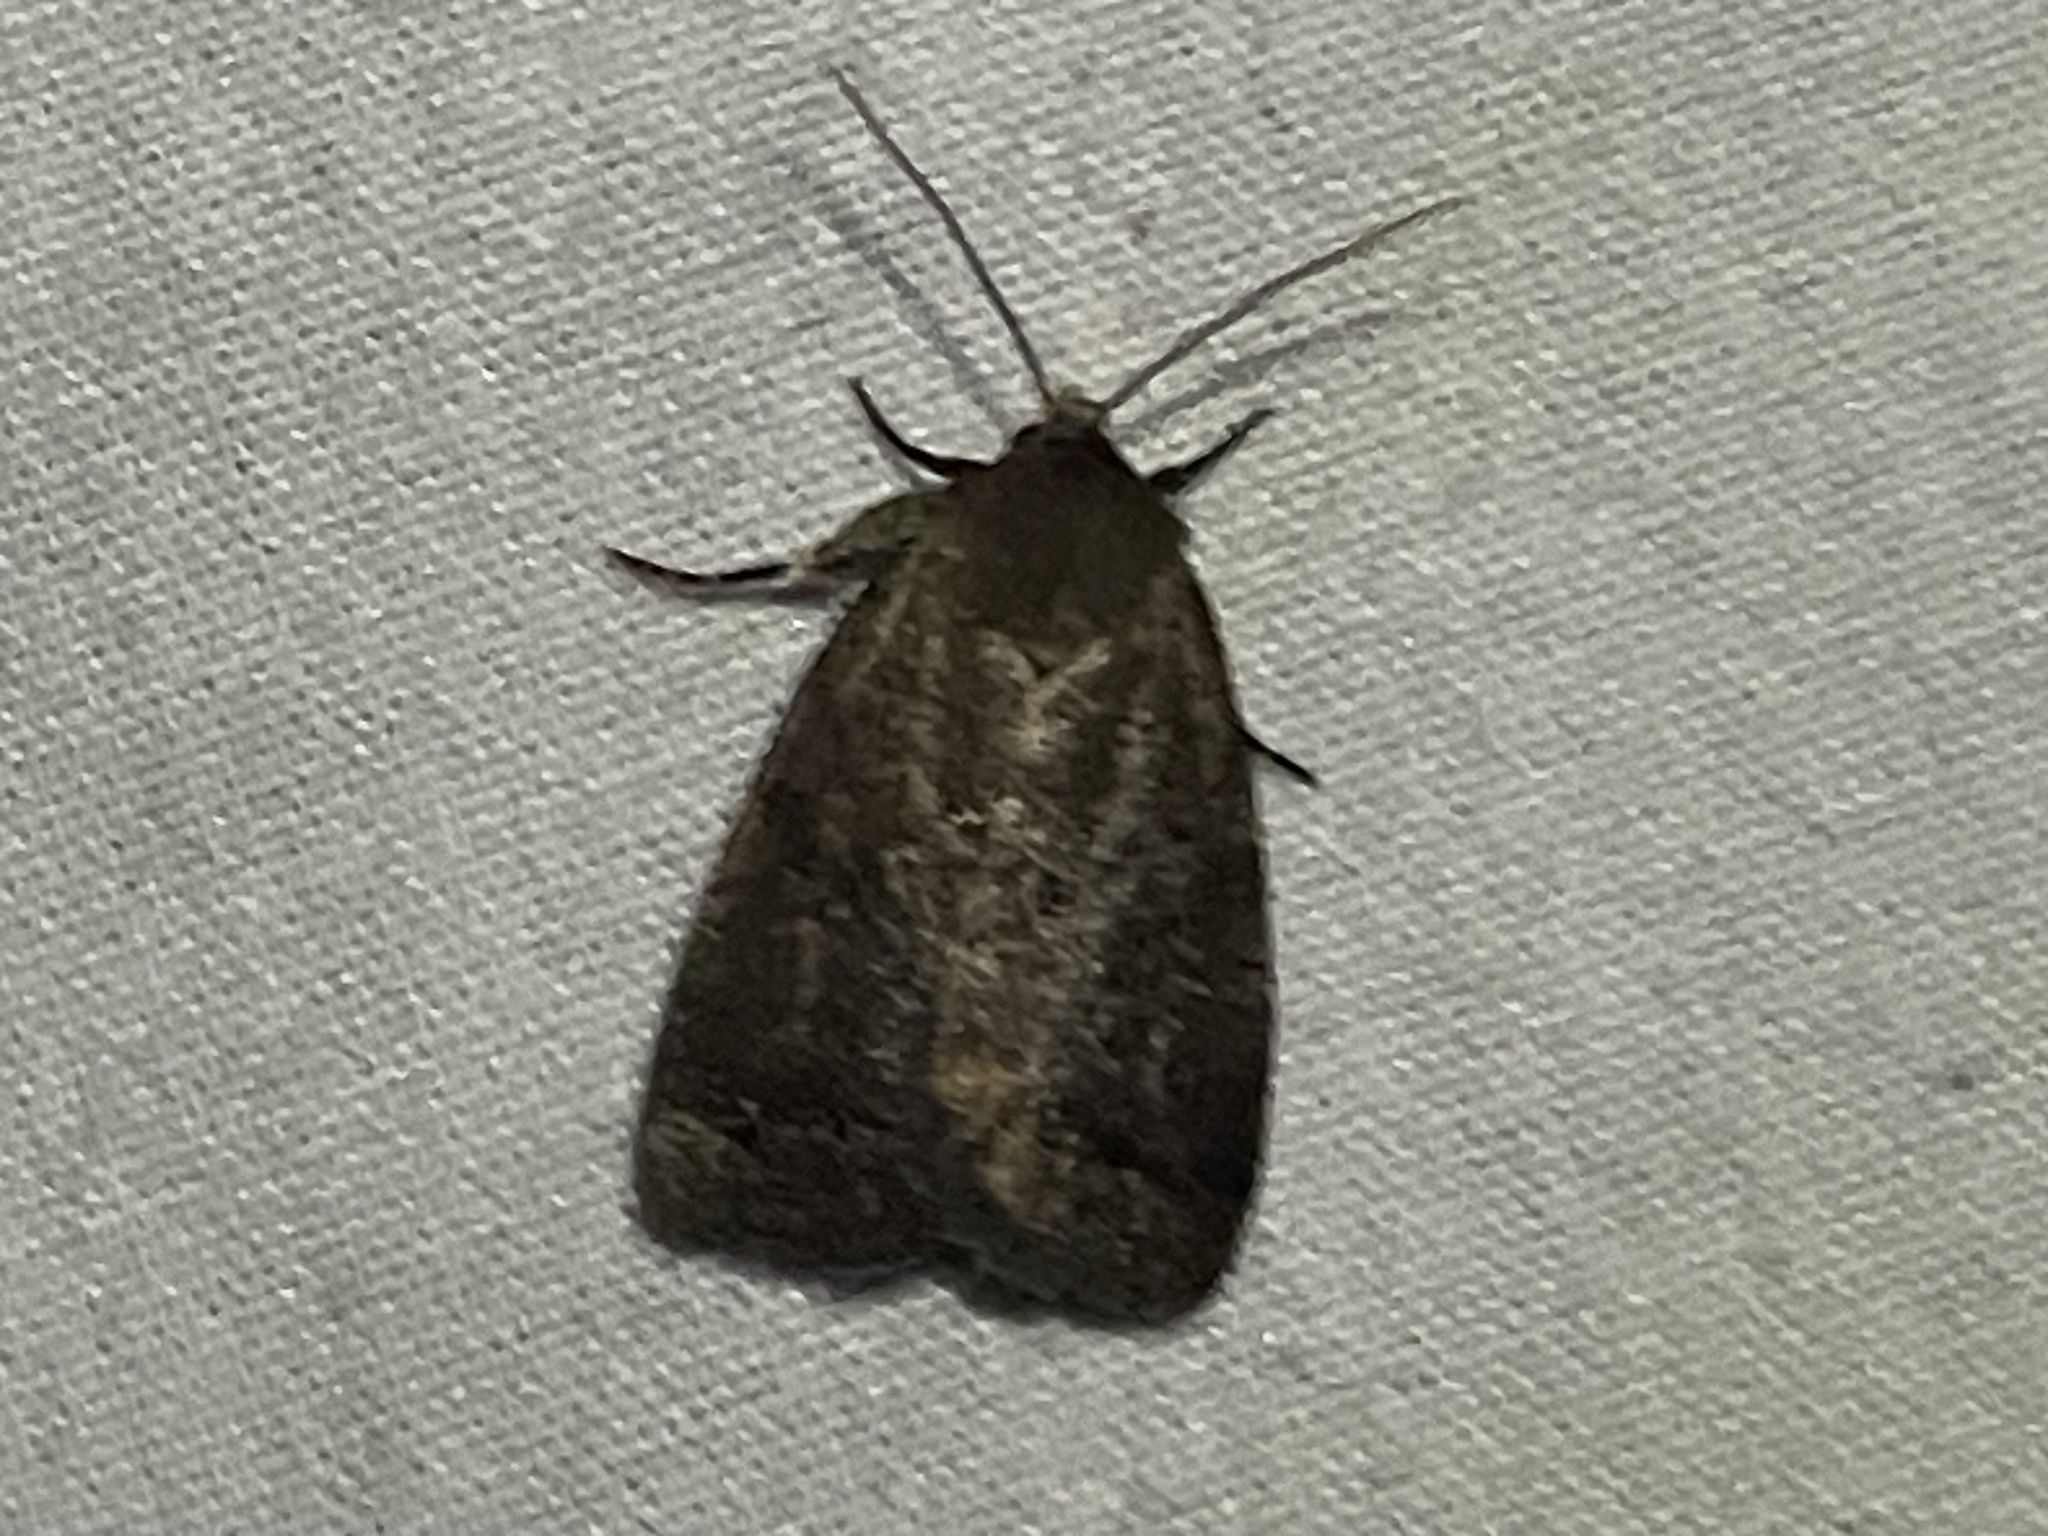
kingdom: Animalia
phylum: Arthropoda
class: Insecta
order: Lepidoptera
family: Noctuidae
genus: Athetis
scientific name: Athetis tarda
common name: Slowpoke moth
